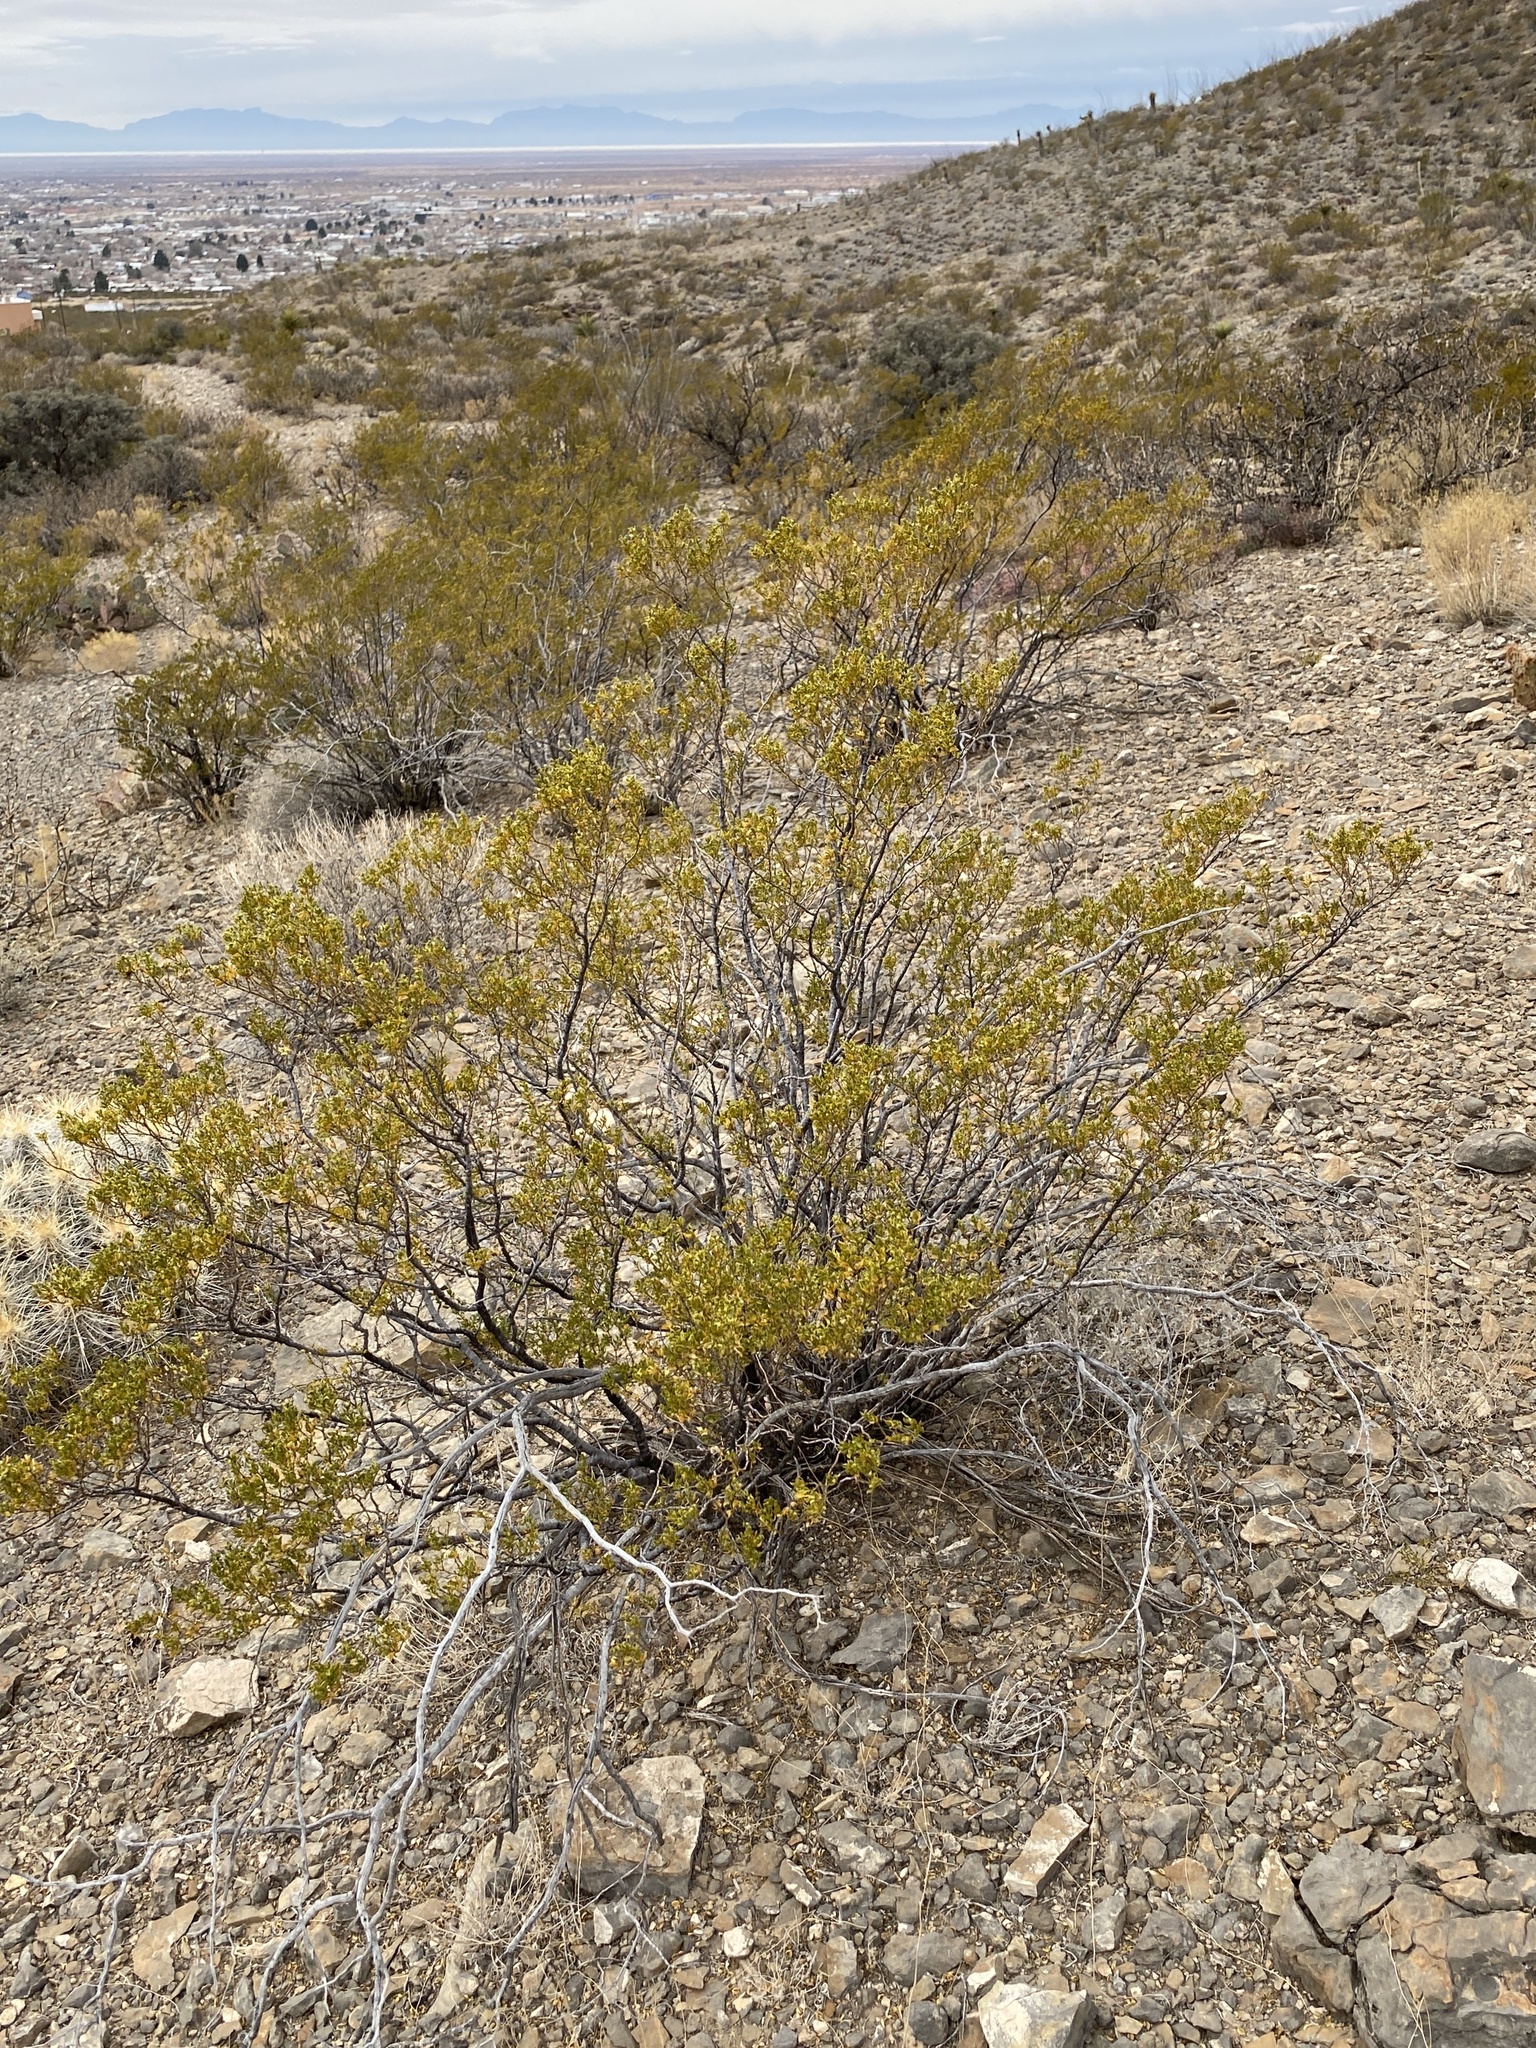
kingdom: Plantae
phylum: Tracheophyta
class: Magnoliopsida
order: Zygophyllales
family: Zygophyllaceae
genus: Larrea
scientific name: Larrea tridentata
